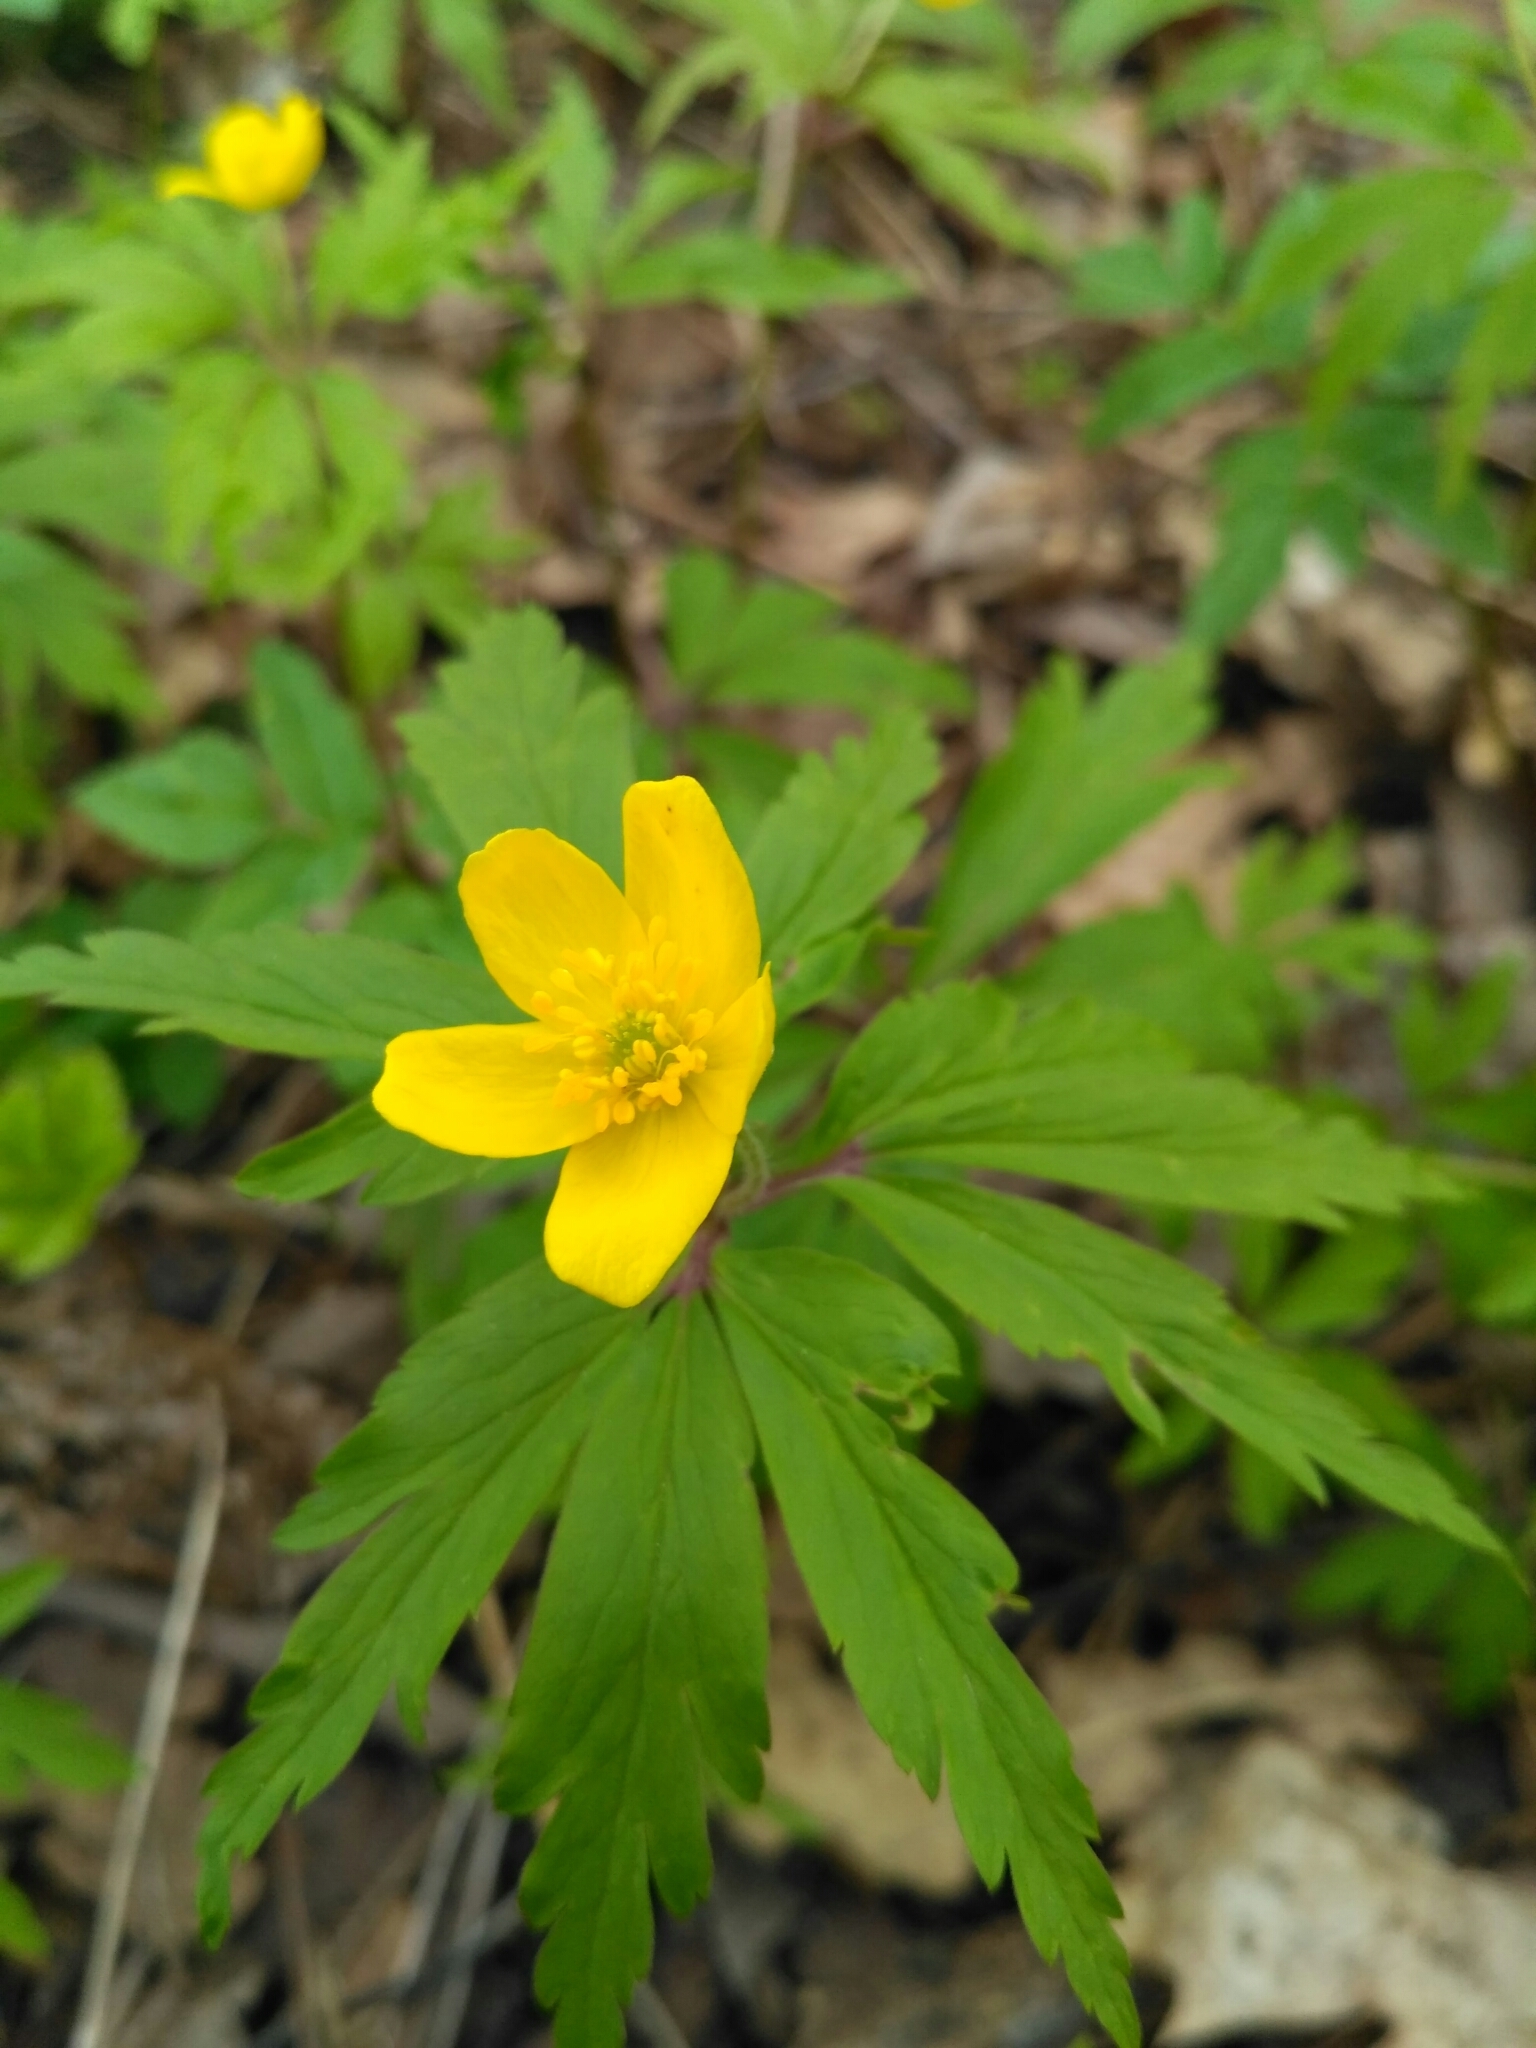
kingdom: Plantae
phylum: Tracheophyta
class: Magnoliopsida
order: Ranunculales
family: Ranunculaceae
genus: Anemone
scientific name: Anemone ranunculoides
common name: Yellow anemone
